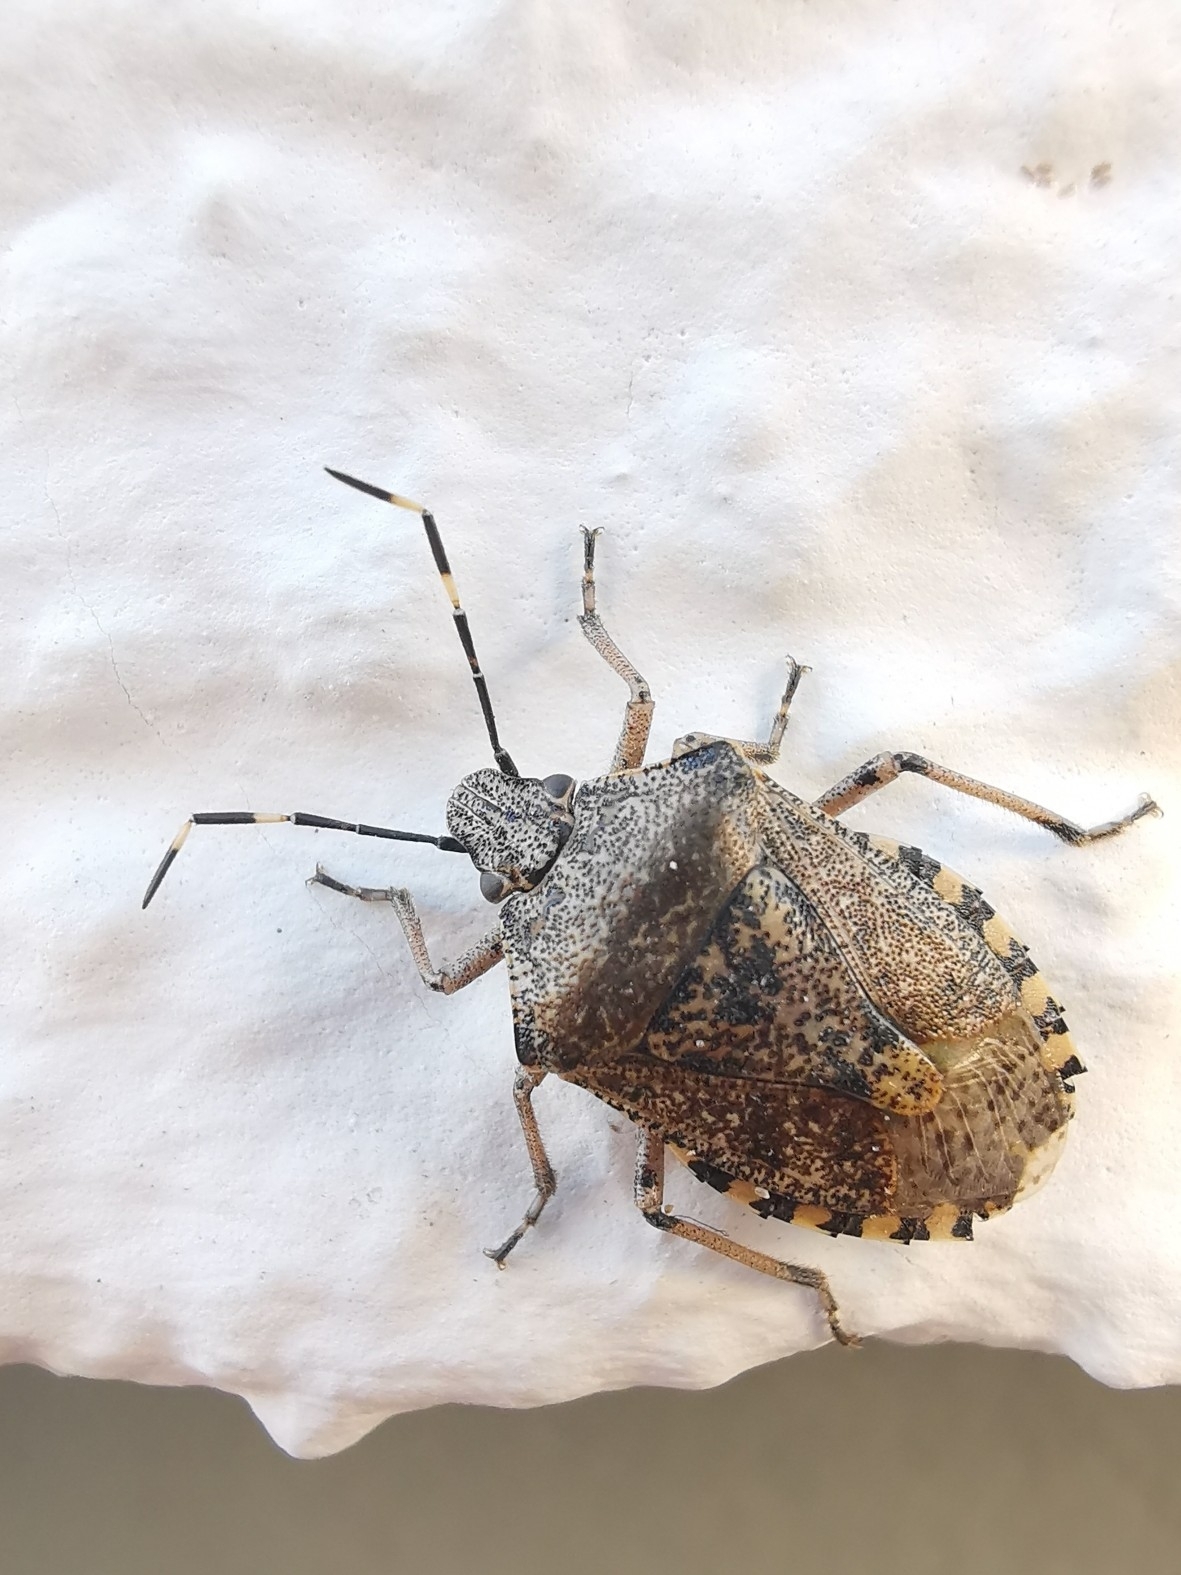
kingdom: Animalia
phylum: Arthropoda
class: Insecta
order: Hemiptera
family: Pentatomidae
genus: Rhaphigaster
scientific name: Rhaphigaster nebulosa
